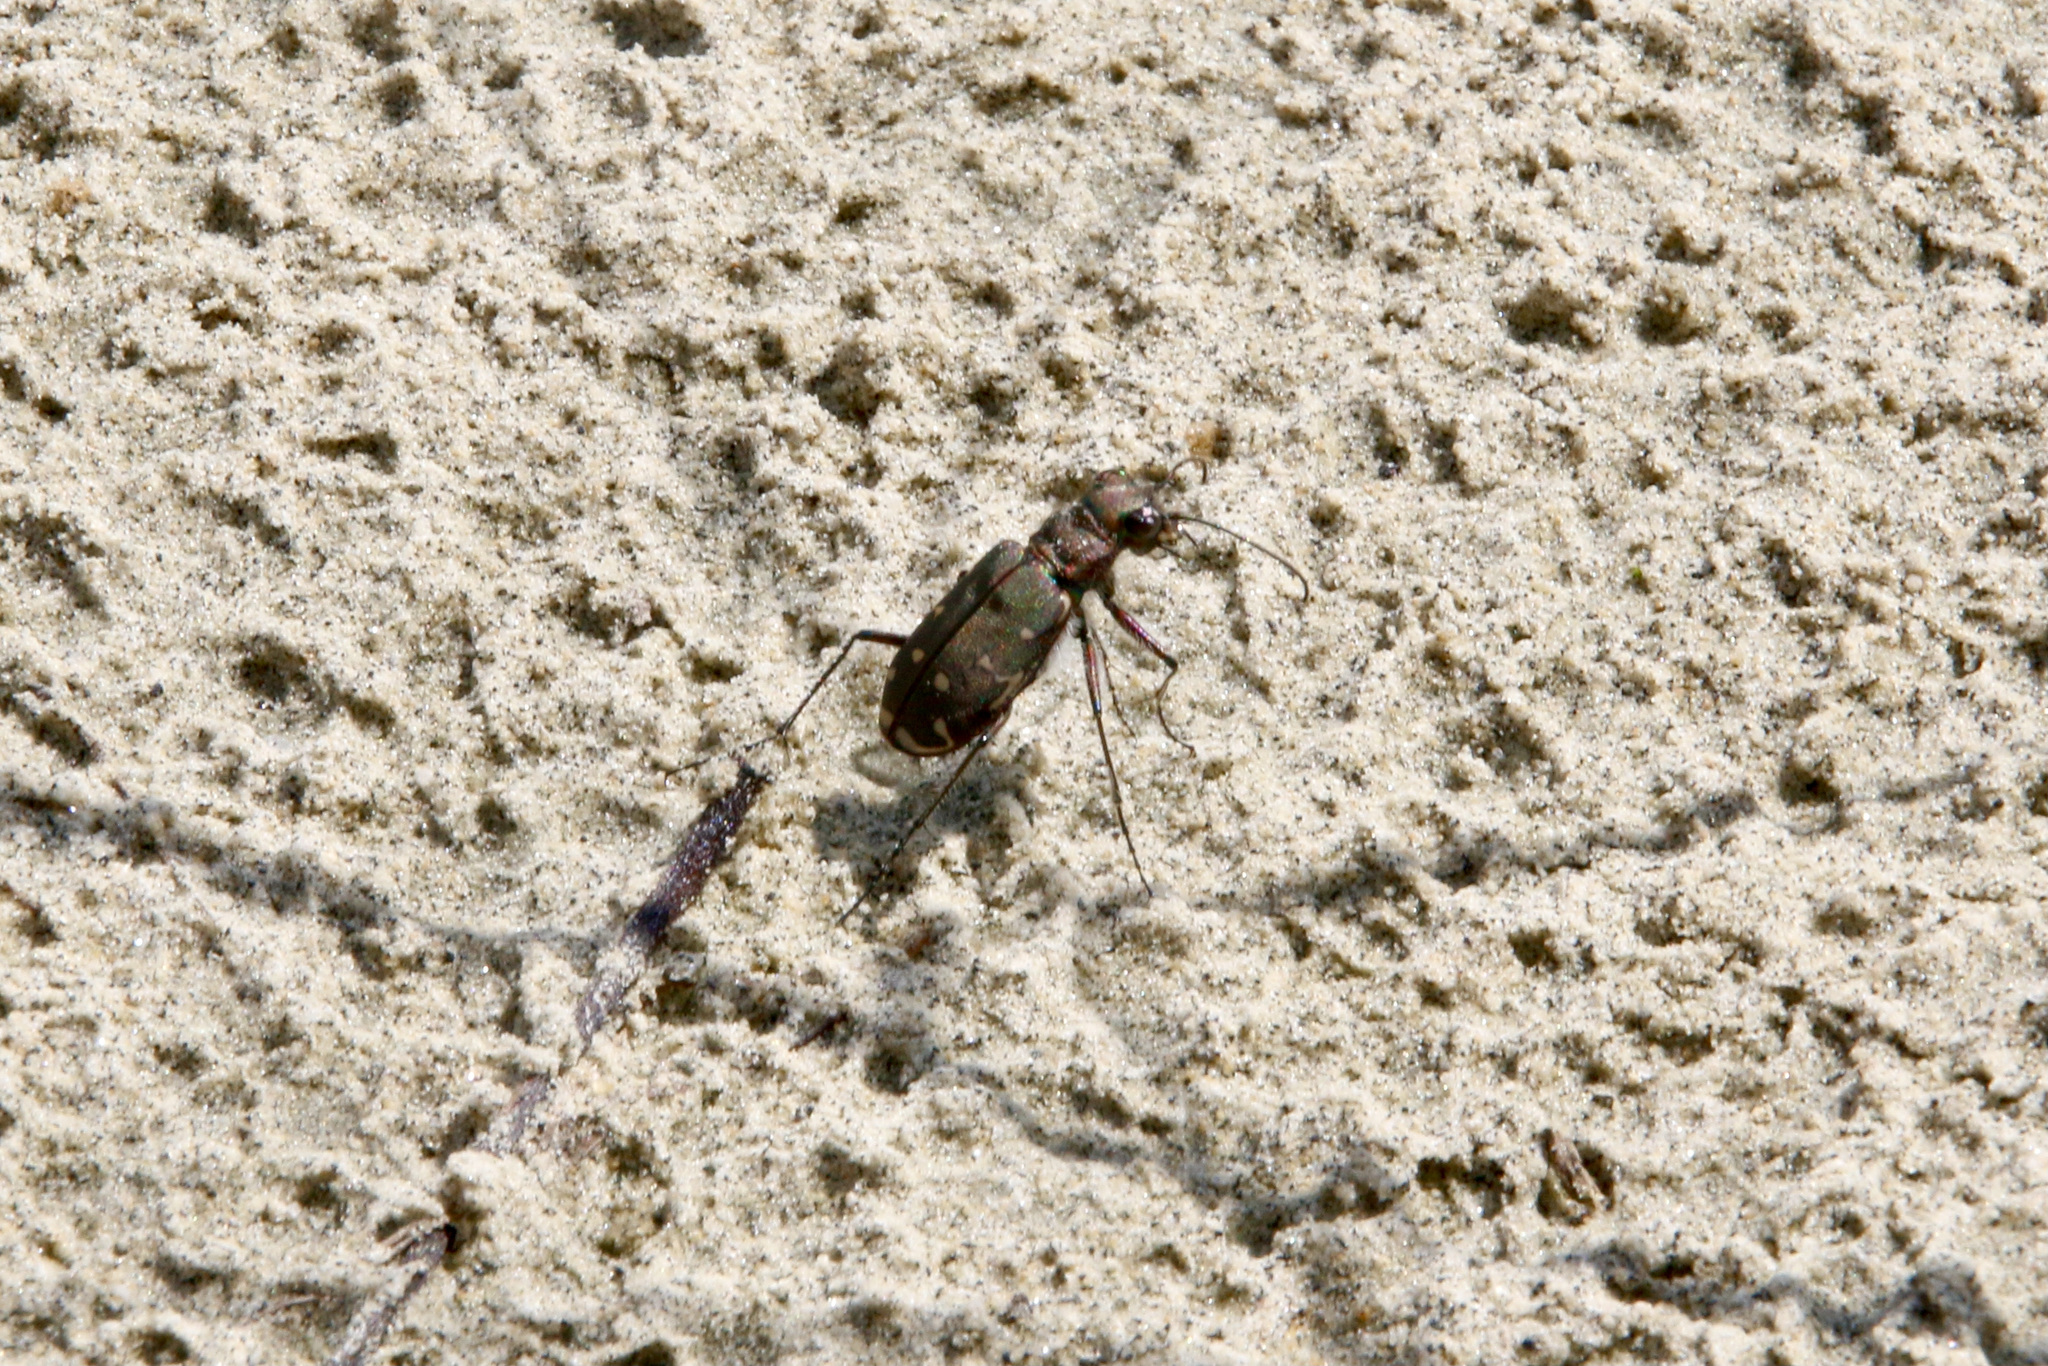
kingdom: Animalia
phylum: Arthropoda
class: Insecta
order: Coleoptera
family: Carabidae
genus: Cicindela
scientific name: Cicindela duodecimguttata
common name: Twelve-spotted tiger beetle
